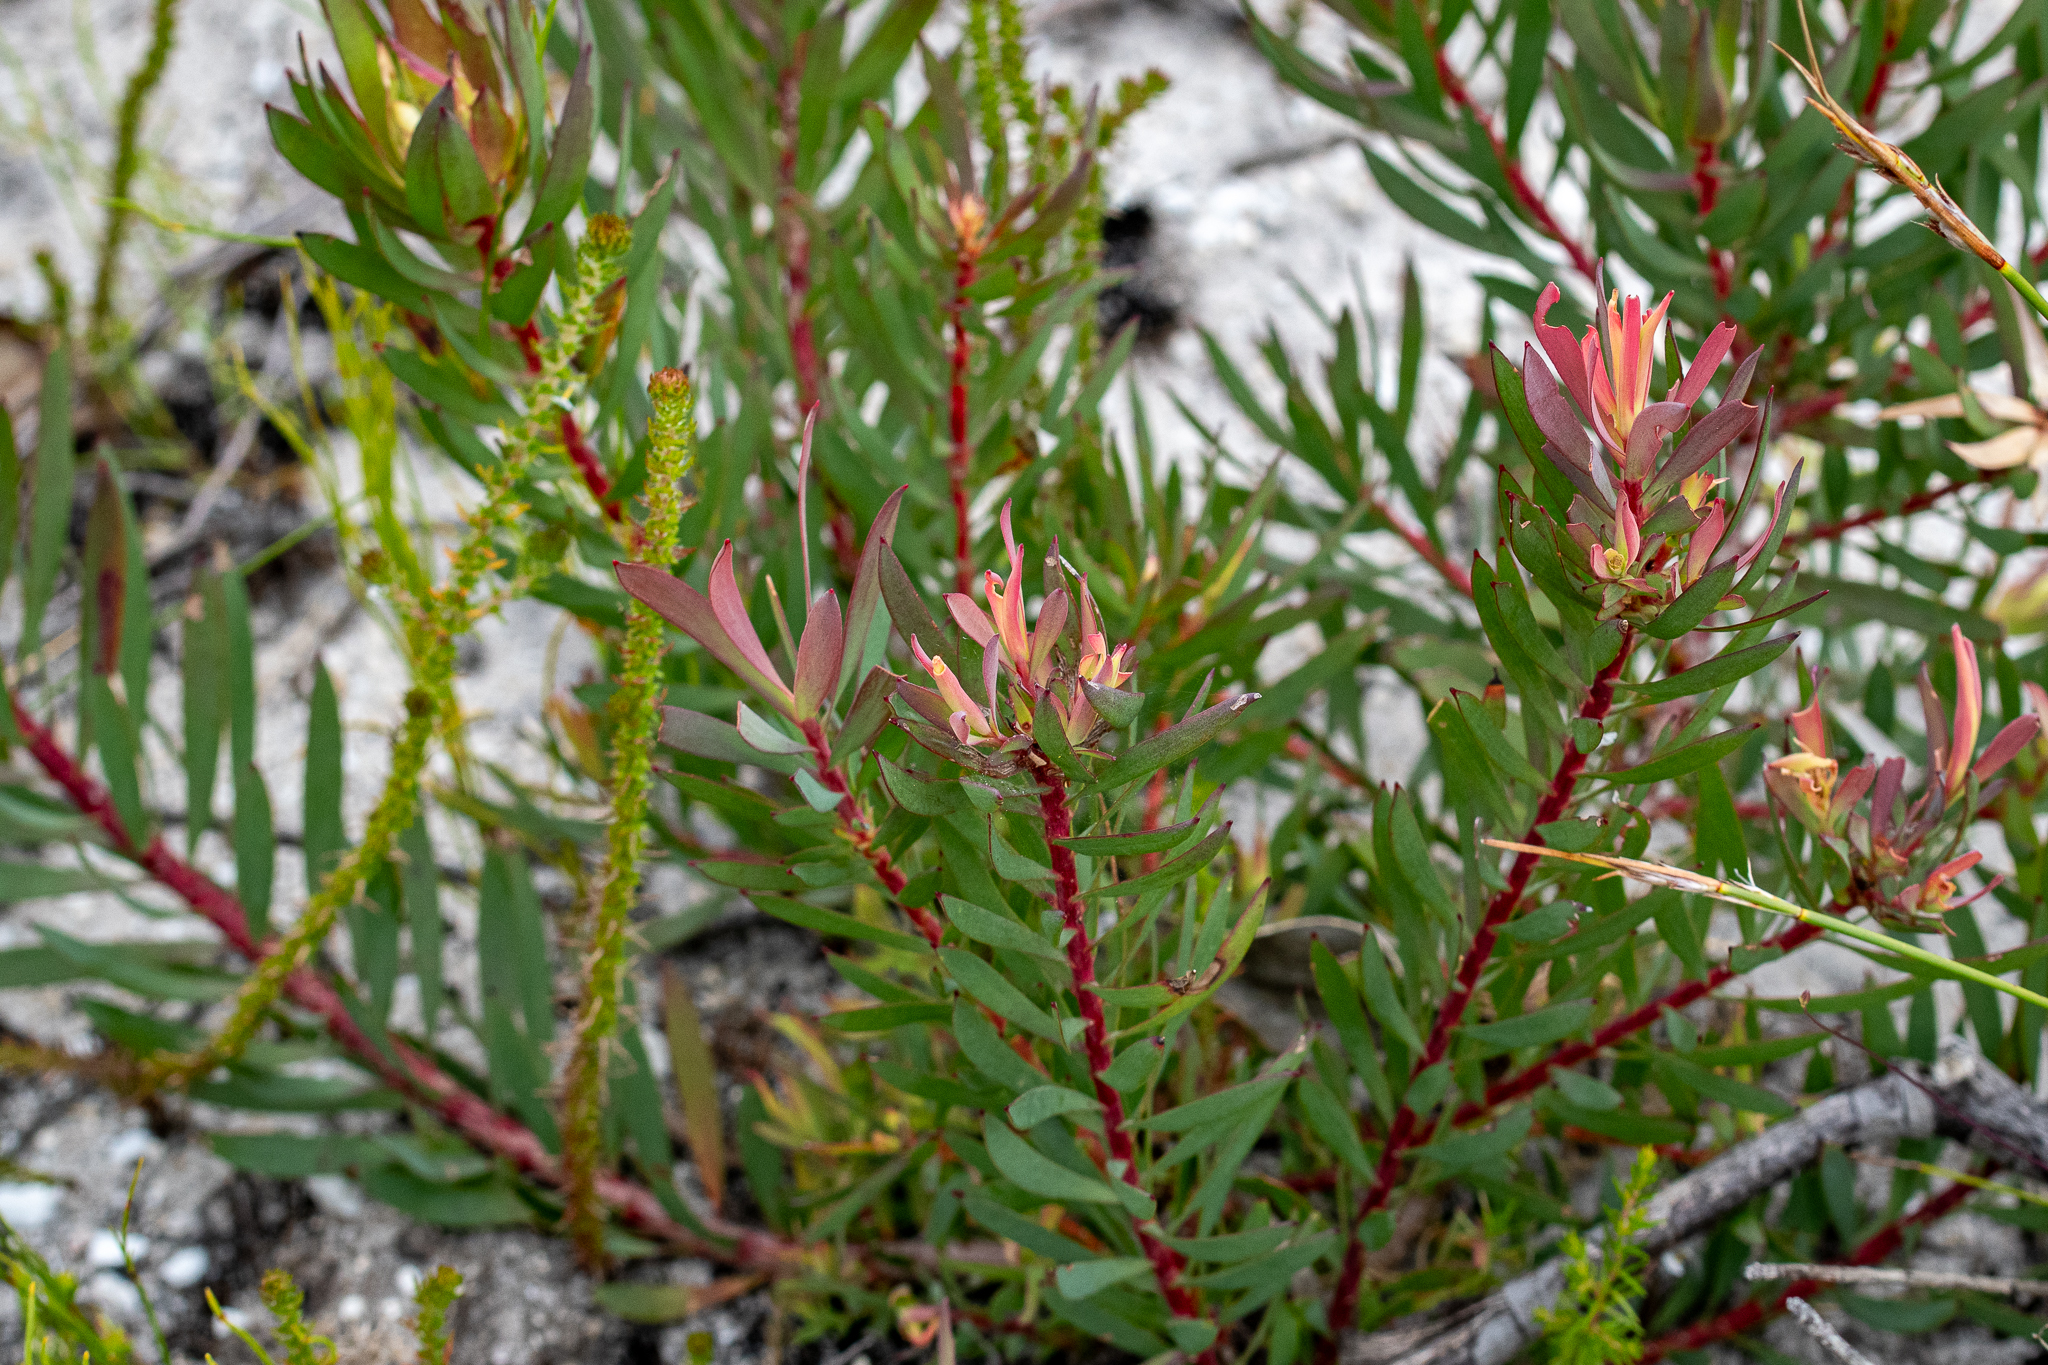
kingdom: Plantae
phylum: Tracheophyta
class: Magnoliopsida
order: Proteales
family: Proteaceae
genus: Leucadendron
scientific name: Leucadendron salignum
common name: Common sunshine conebush
